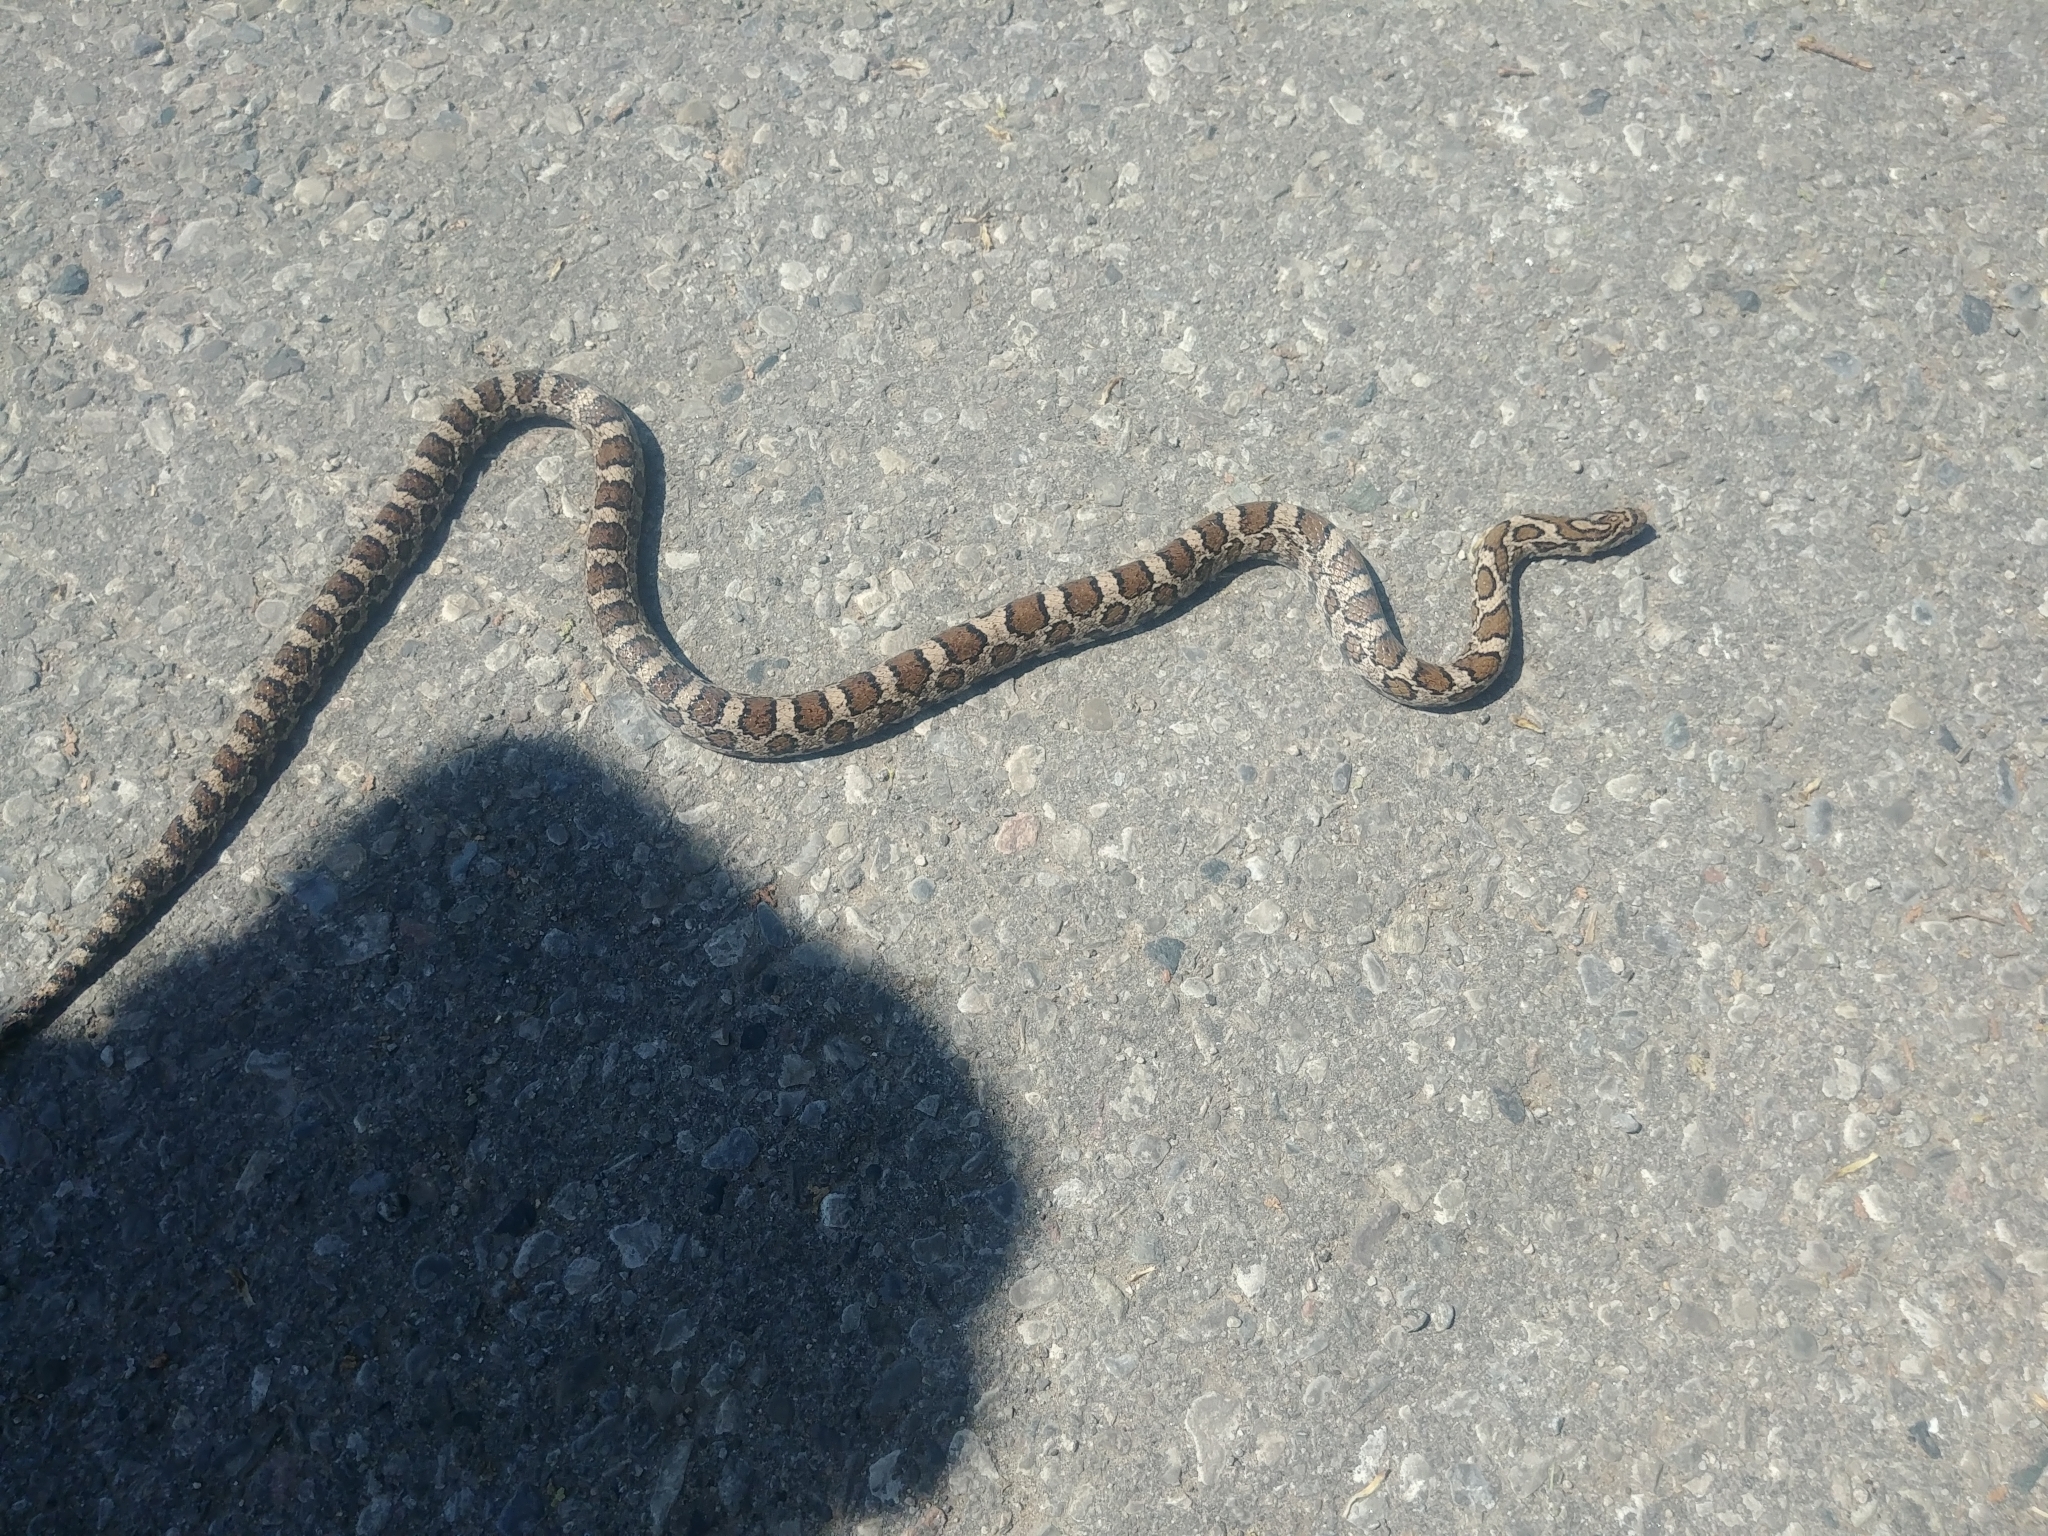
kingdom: Animalia
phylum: Chordata
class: Squamata
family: Colubridae
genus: Lampropeltis
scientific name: Lampropeltis triangulum
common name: Eastern milksnake
